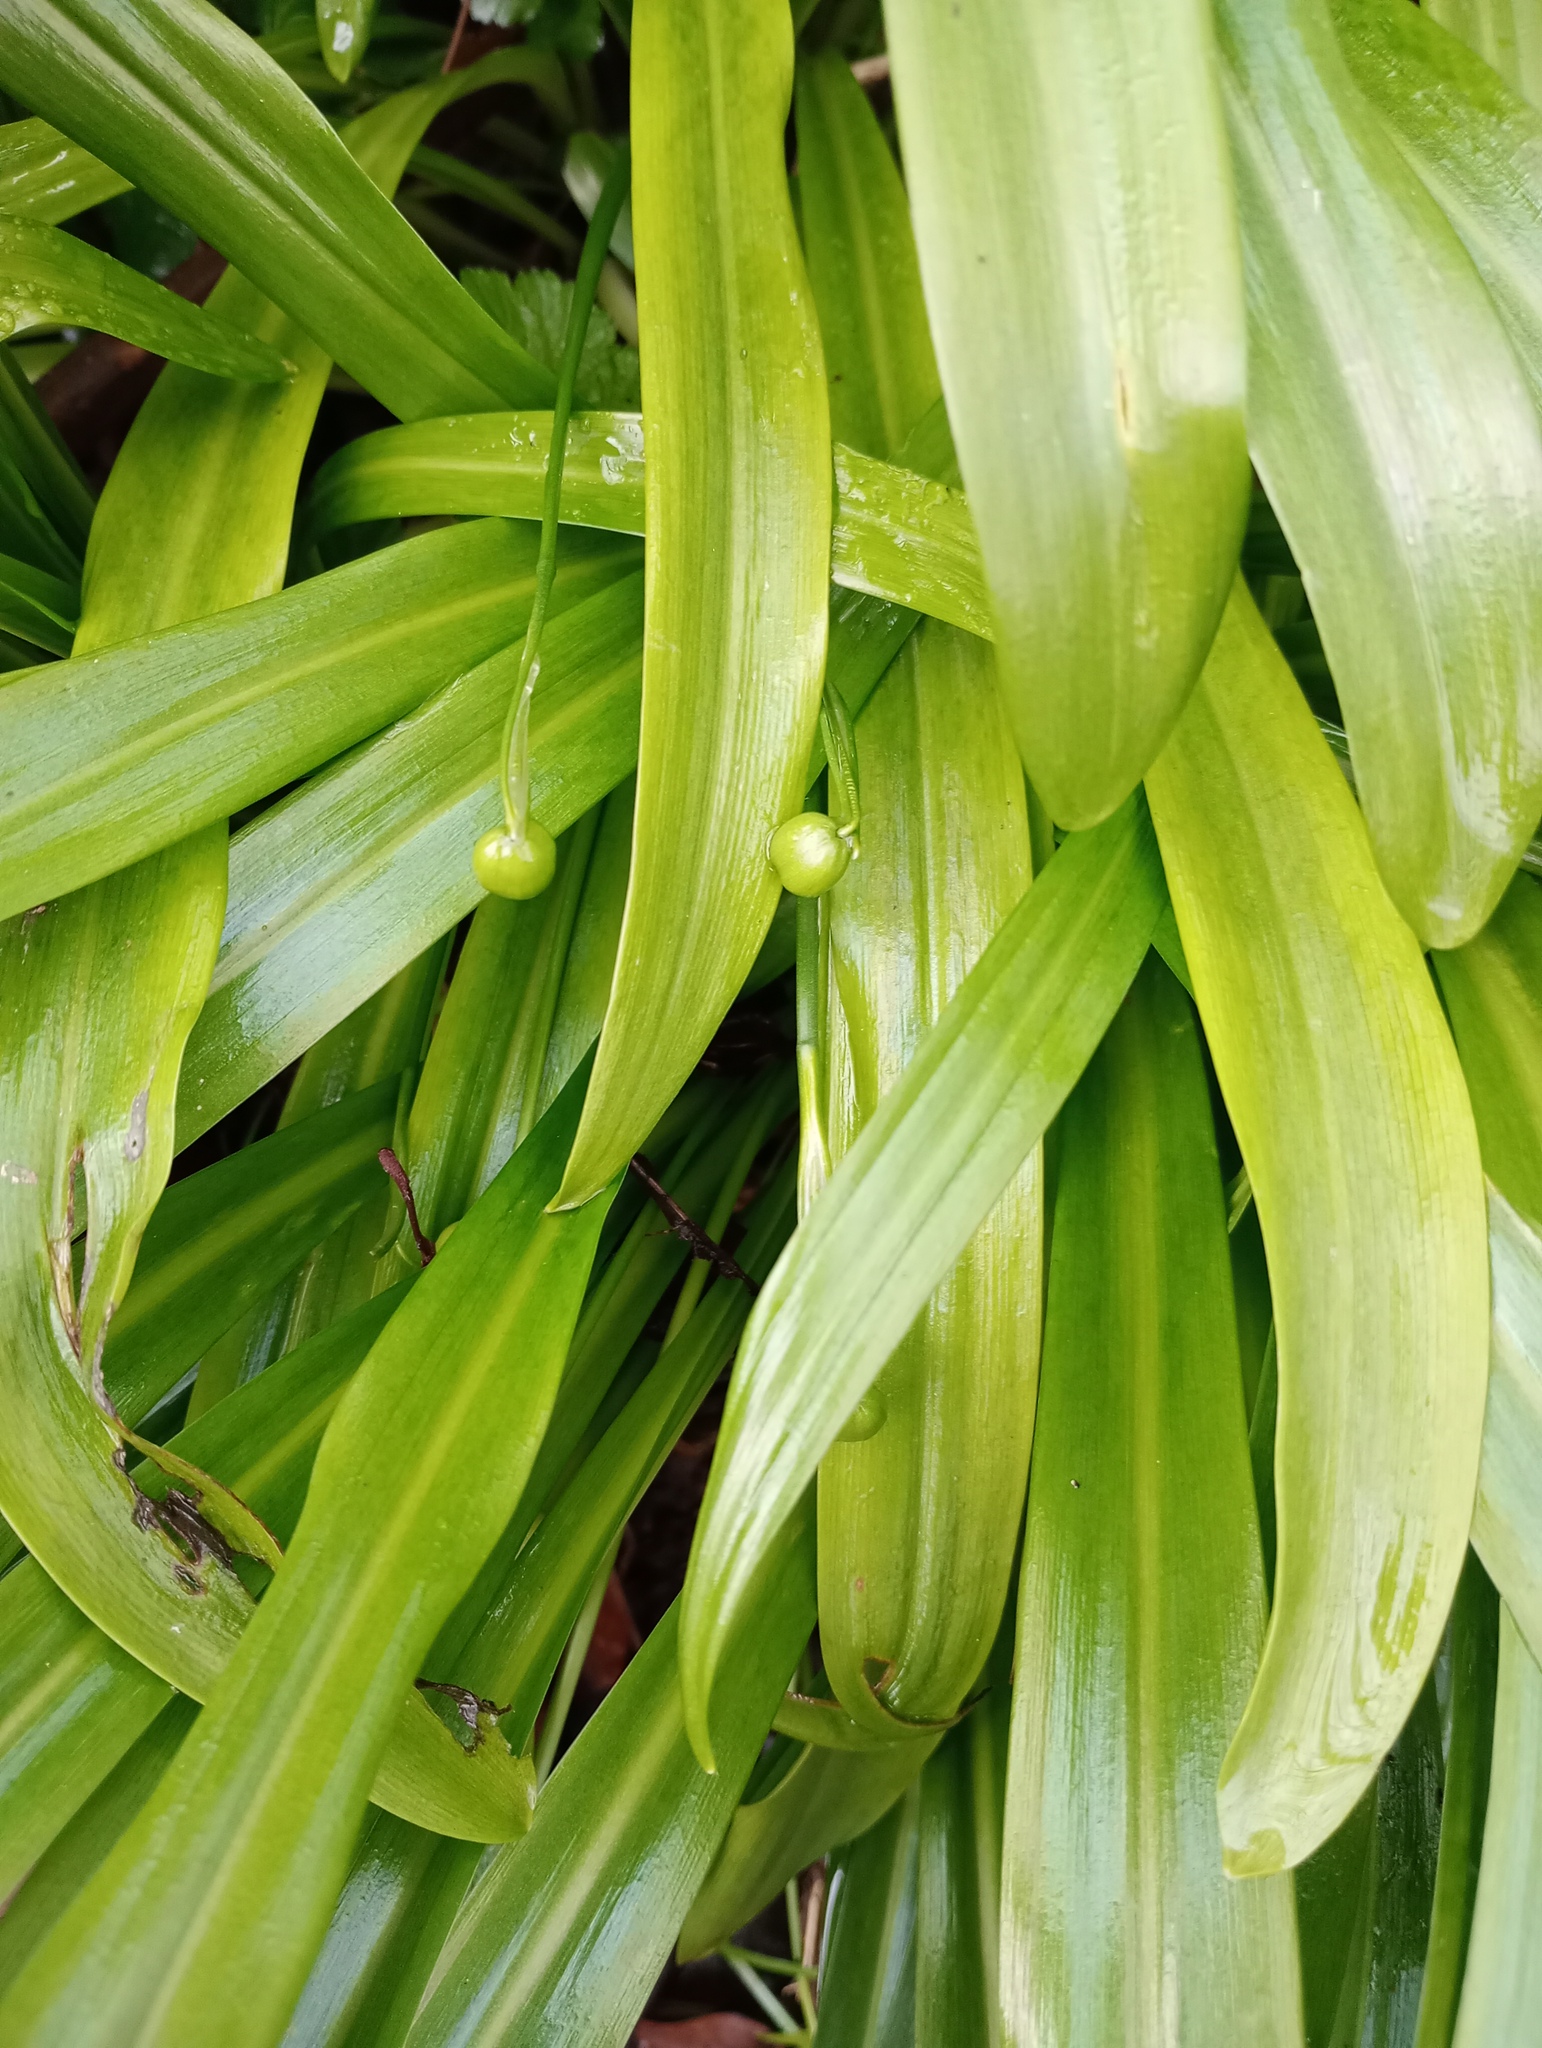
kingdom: Plantae
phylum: Tracheophyta
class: Liliopsida
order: Asparagales
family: Amaryllidaceae
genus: Galanthus
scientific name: Galanthus woronowii
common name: Green snowdrop
